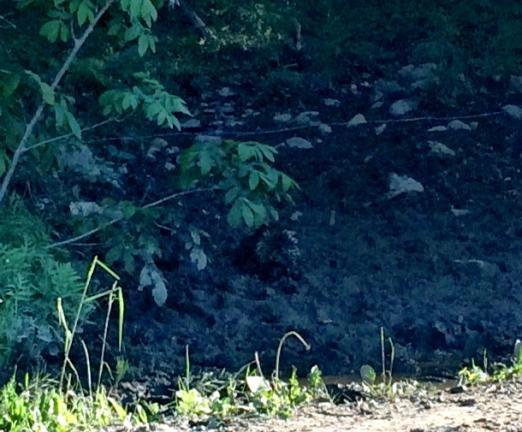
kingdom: Animalia
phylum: Chordata
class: Mammalia
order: Rodentia
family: Erethizontidae
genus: Erethizon
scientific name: Erethizon dorsatus
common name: North american porcupine
